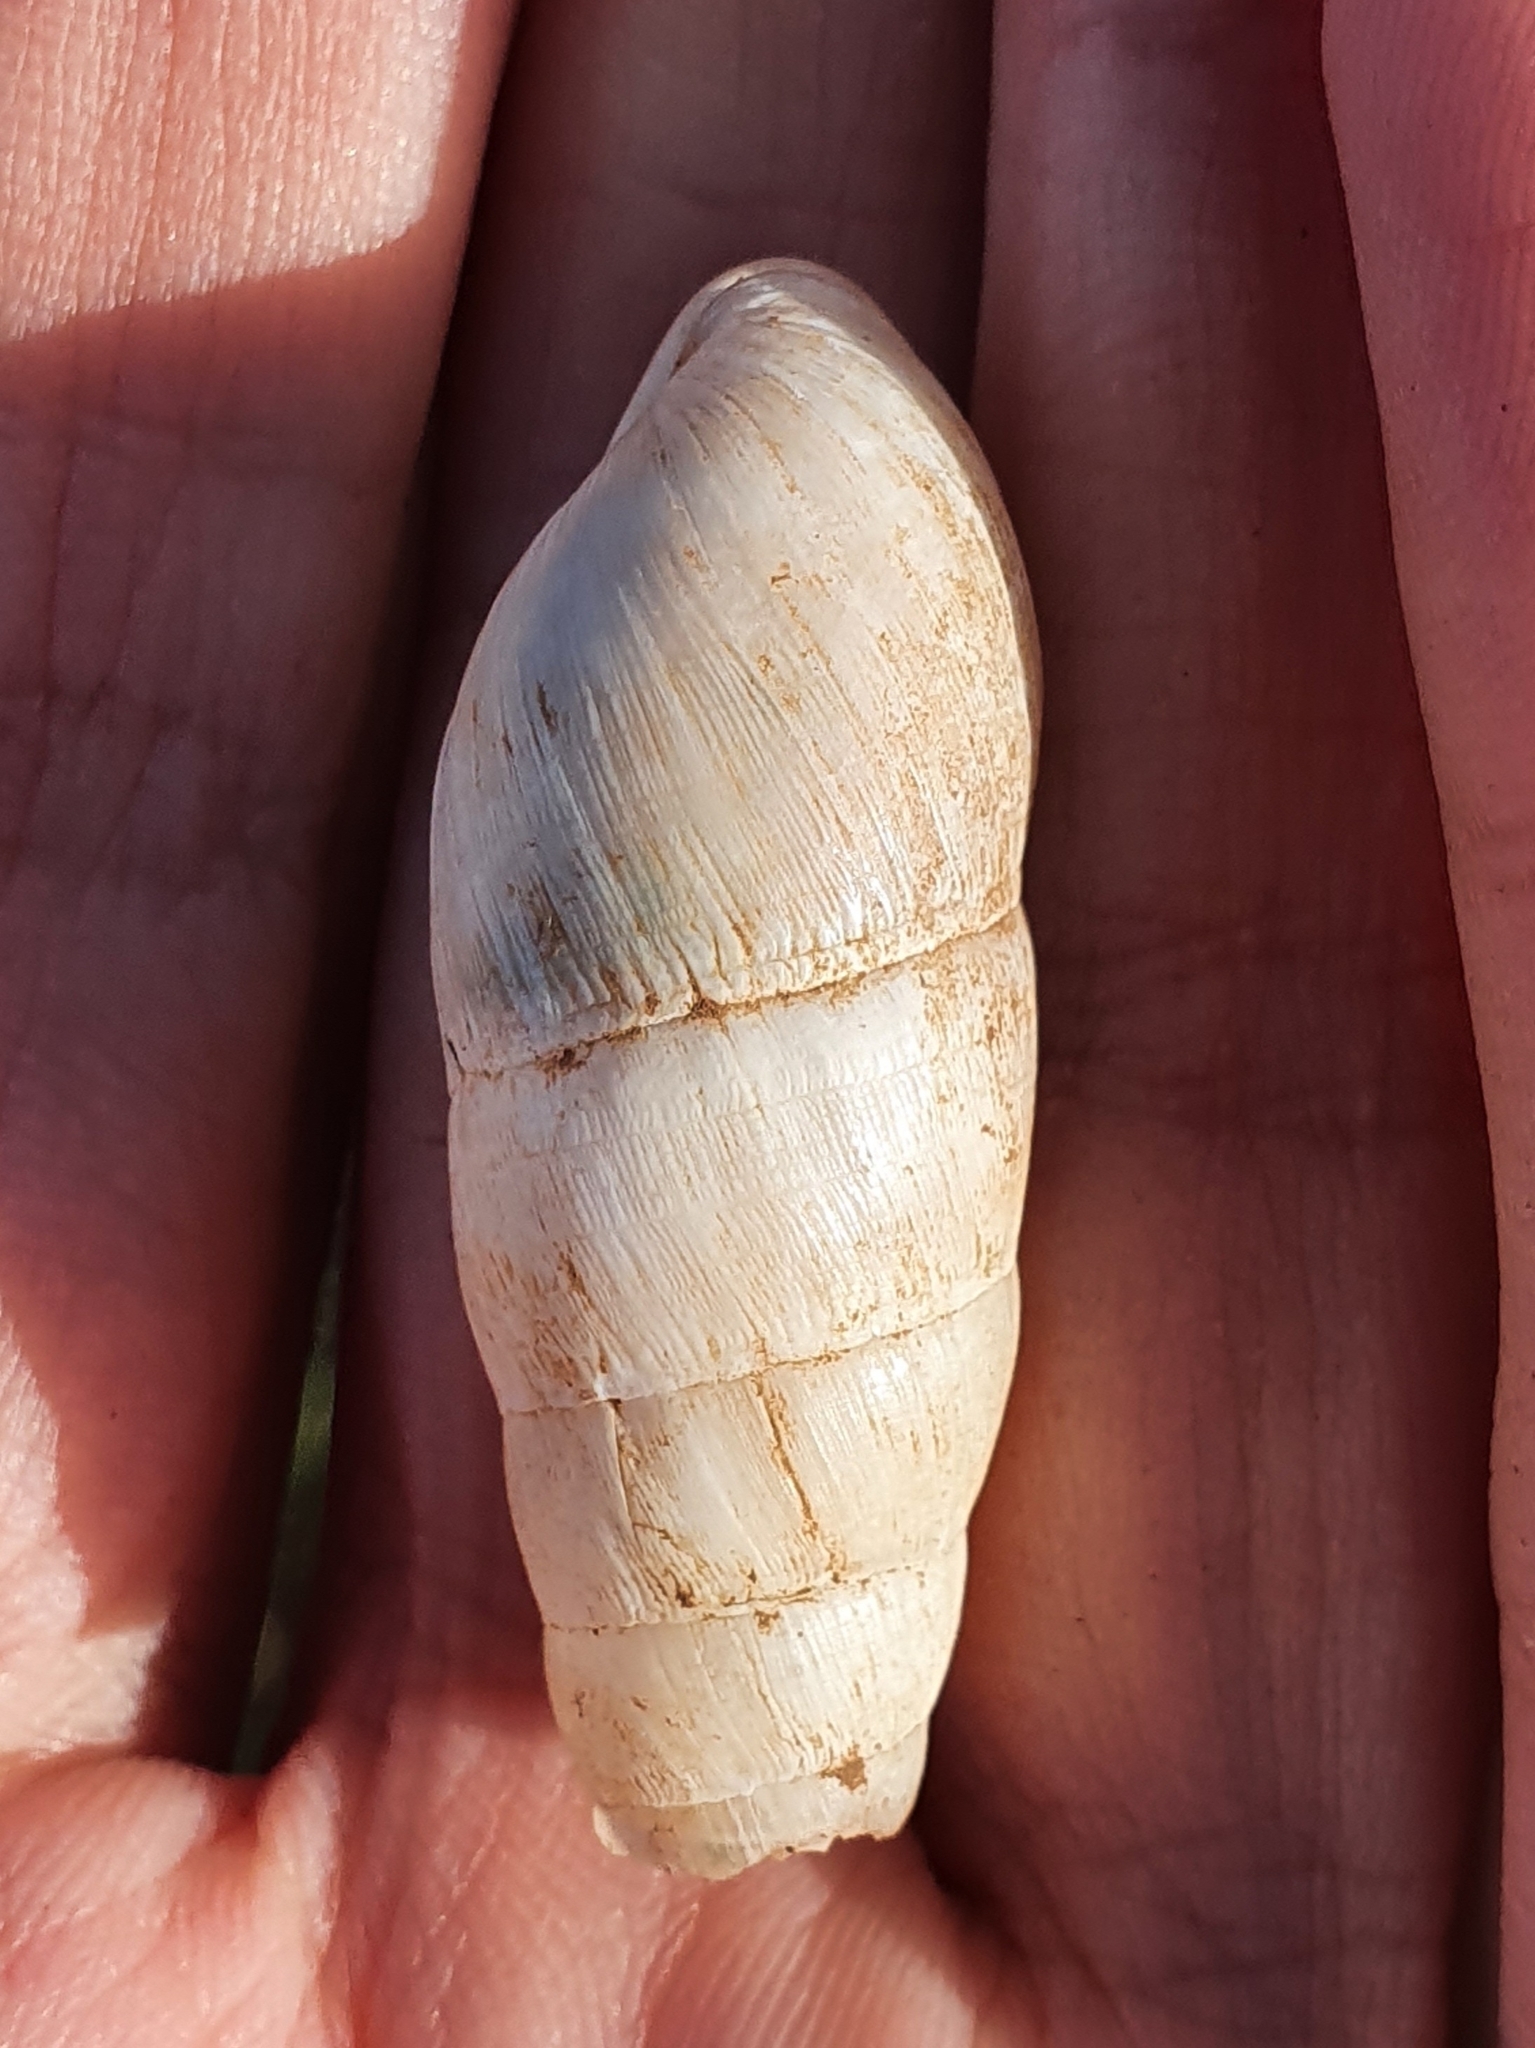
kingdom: Animalia
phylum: Mollusca
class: Gastropoda
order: Stylommatophora
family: Achatinidae
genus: Rumina
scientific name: Rumina decollata
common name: Decollate snail
